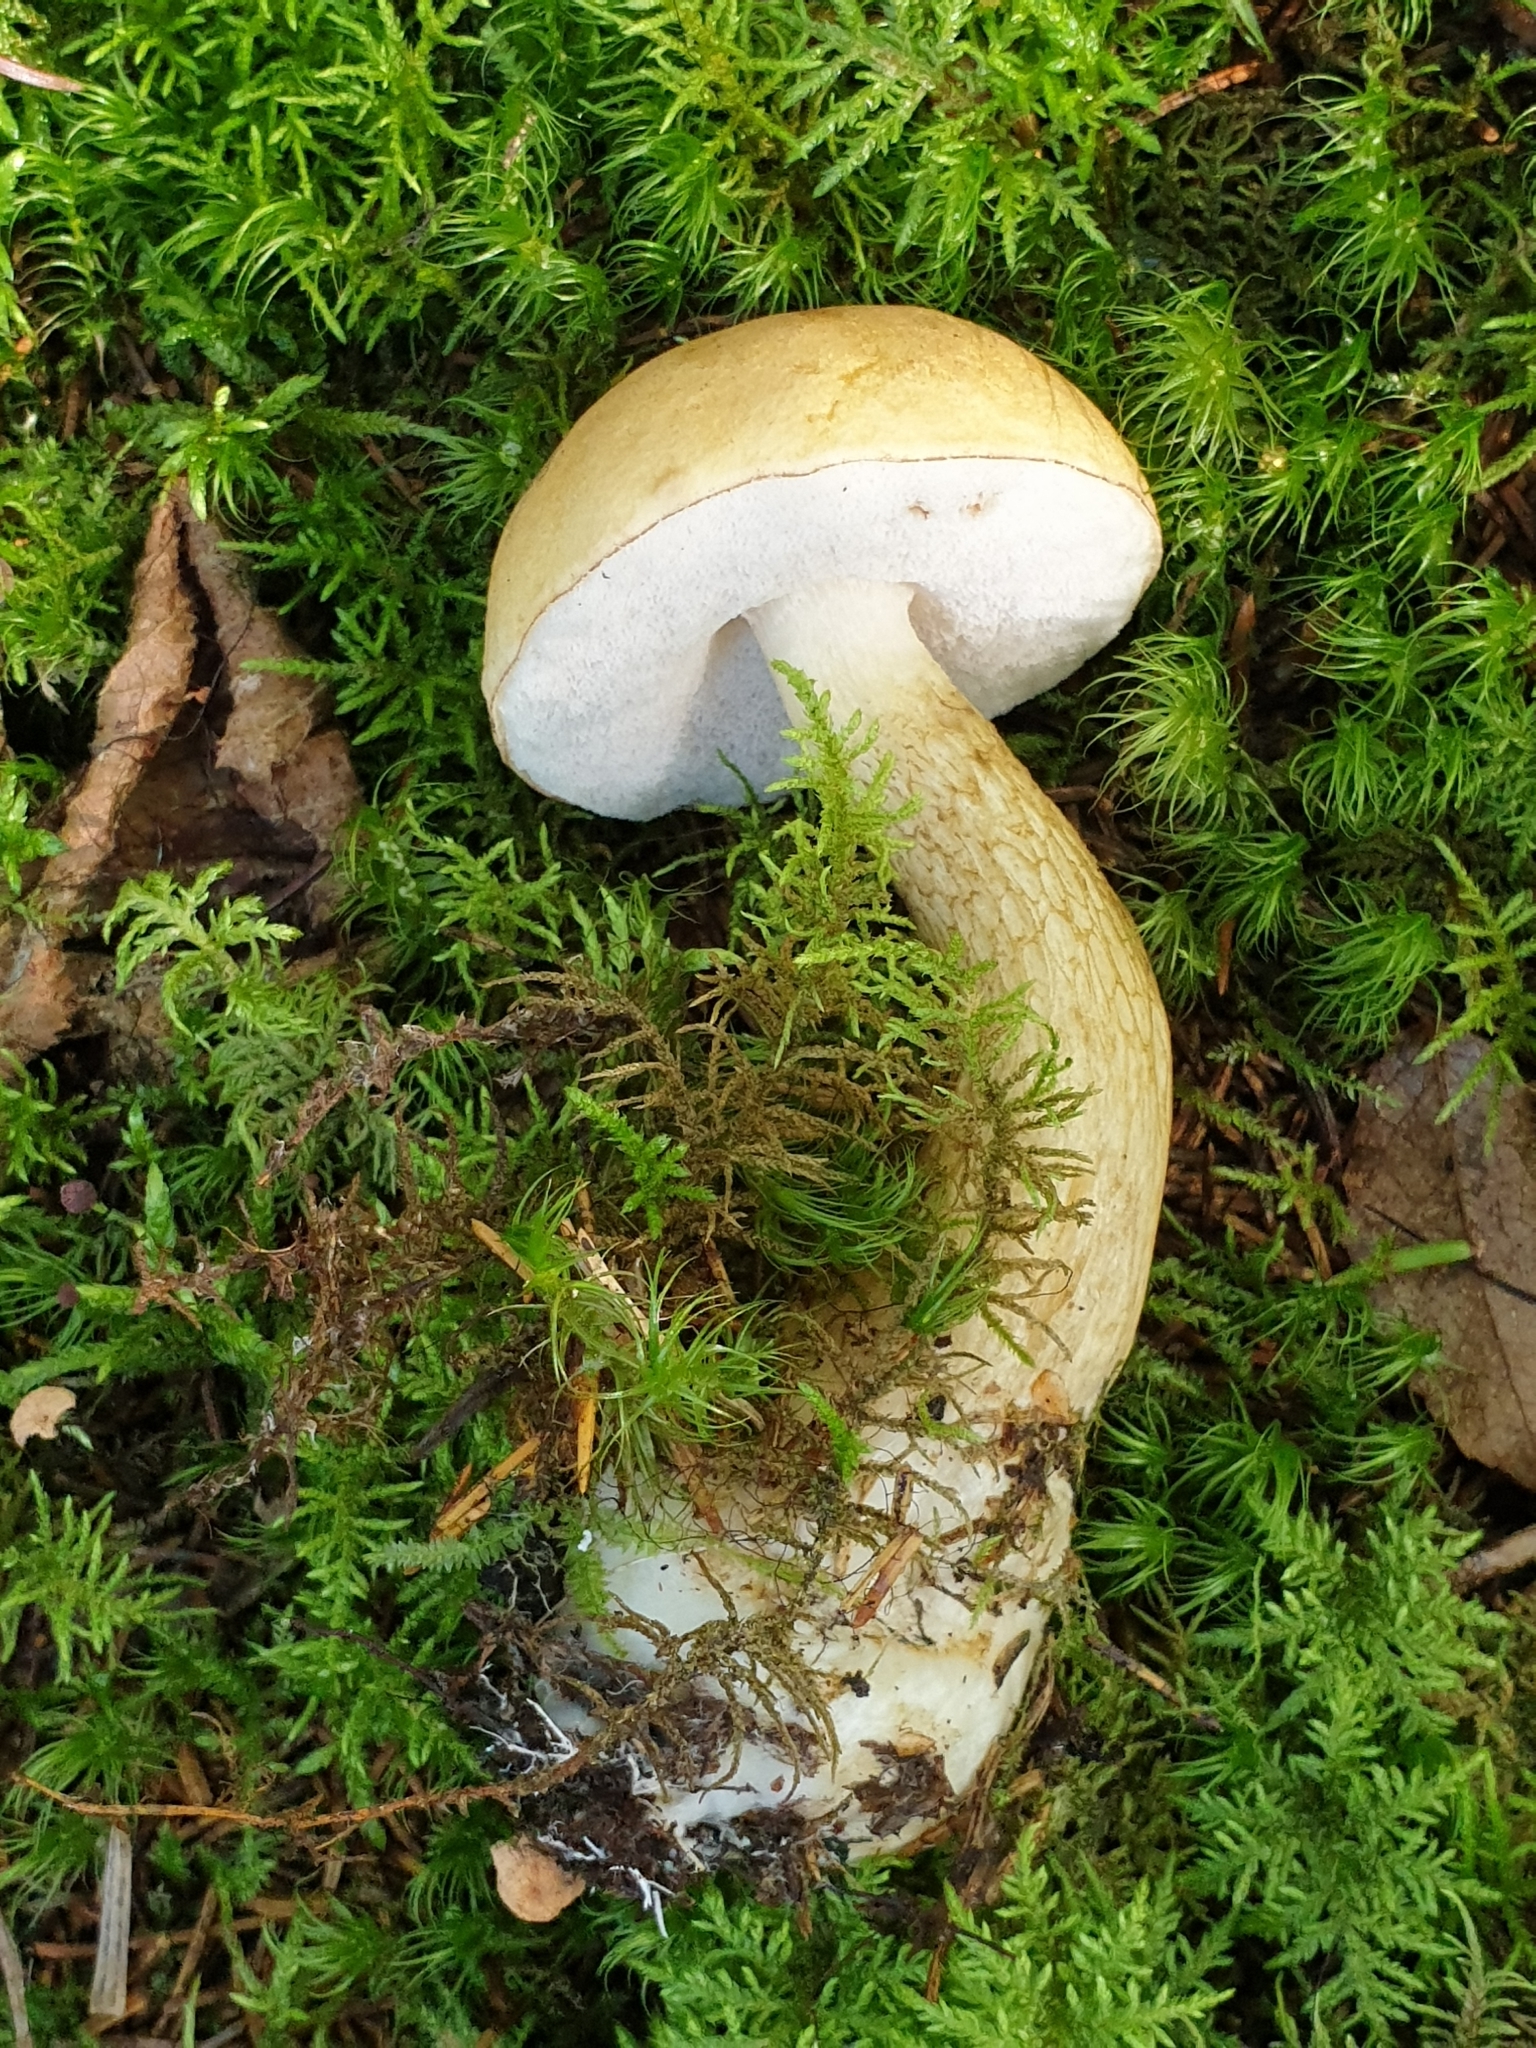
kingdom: Fungi
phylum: Basidiomycota
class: Agaricomycetes
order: Boletales
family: Boletaceae
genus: Tylopilus
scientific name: Tylopilus felleus
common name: Bitter bolete
